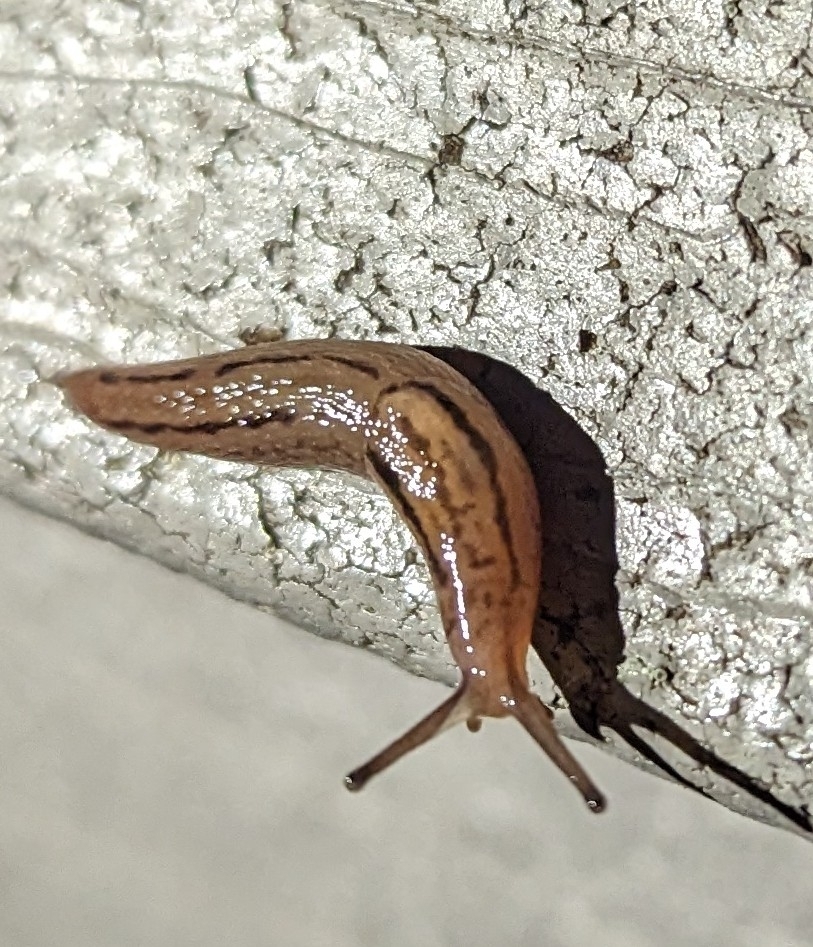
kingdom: Animalia
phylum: Mollusca
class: Gastropoda
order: Stylommatophora
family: Limacidae
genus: Ambigolimax
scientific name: Ambigolimax valentianus
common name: Greenhouse slug
